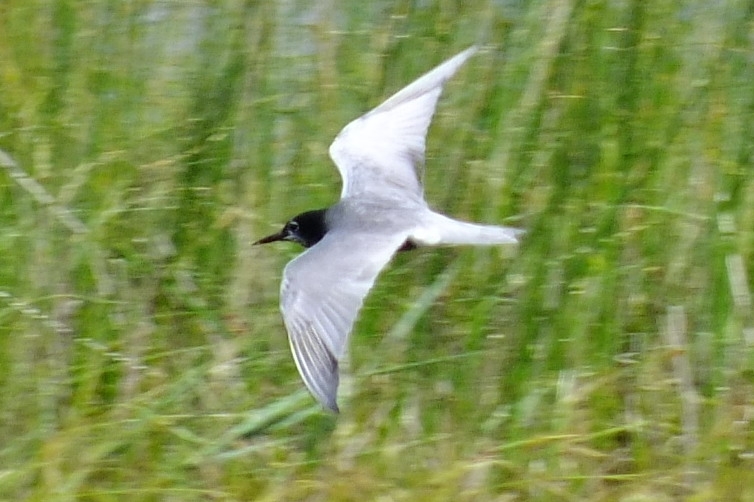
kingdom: Animalia
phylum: Chordata
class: Aves
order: Charadriiformes
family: Laridae
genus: Chlidonias
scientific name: Chlidonias niger
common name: Black tern
